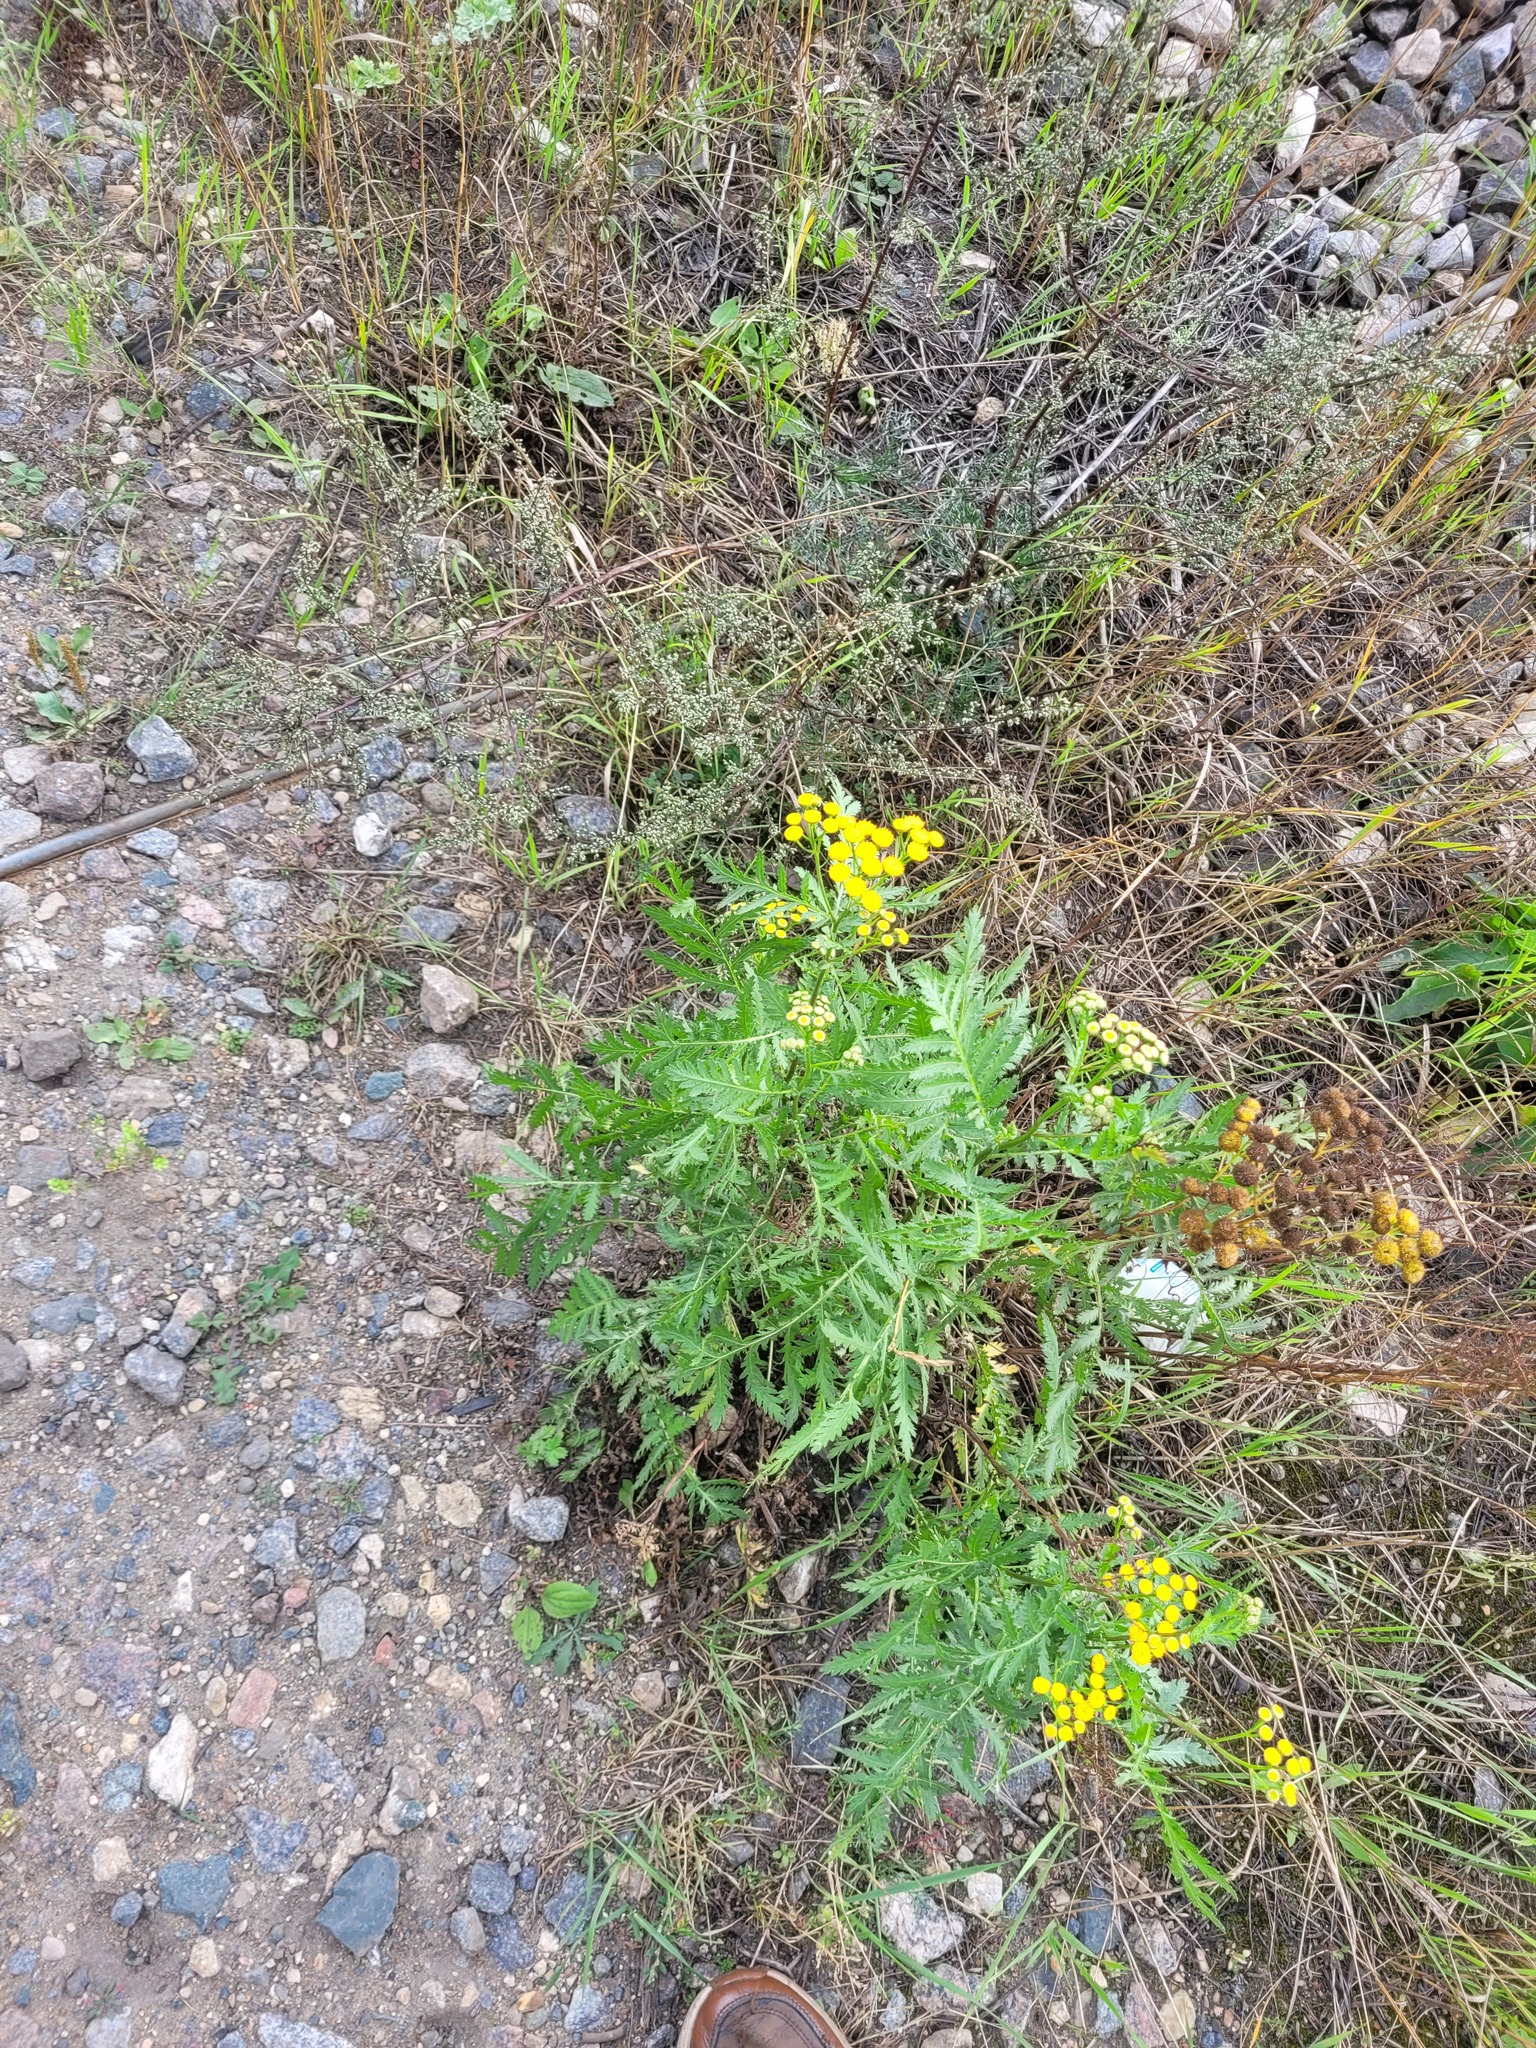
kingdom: Plantae
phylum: Tracheophyta
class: Magnoliopsida
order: Asterales
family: Asteraceae
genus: Tanacetum
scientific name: Tanacetum vulgare
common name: Common tansy
